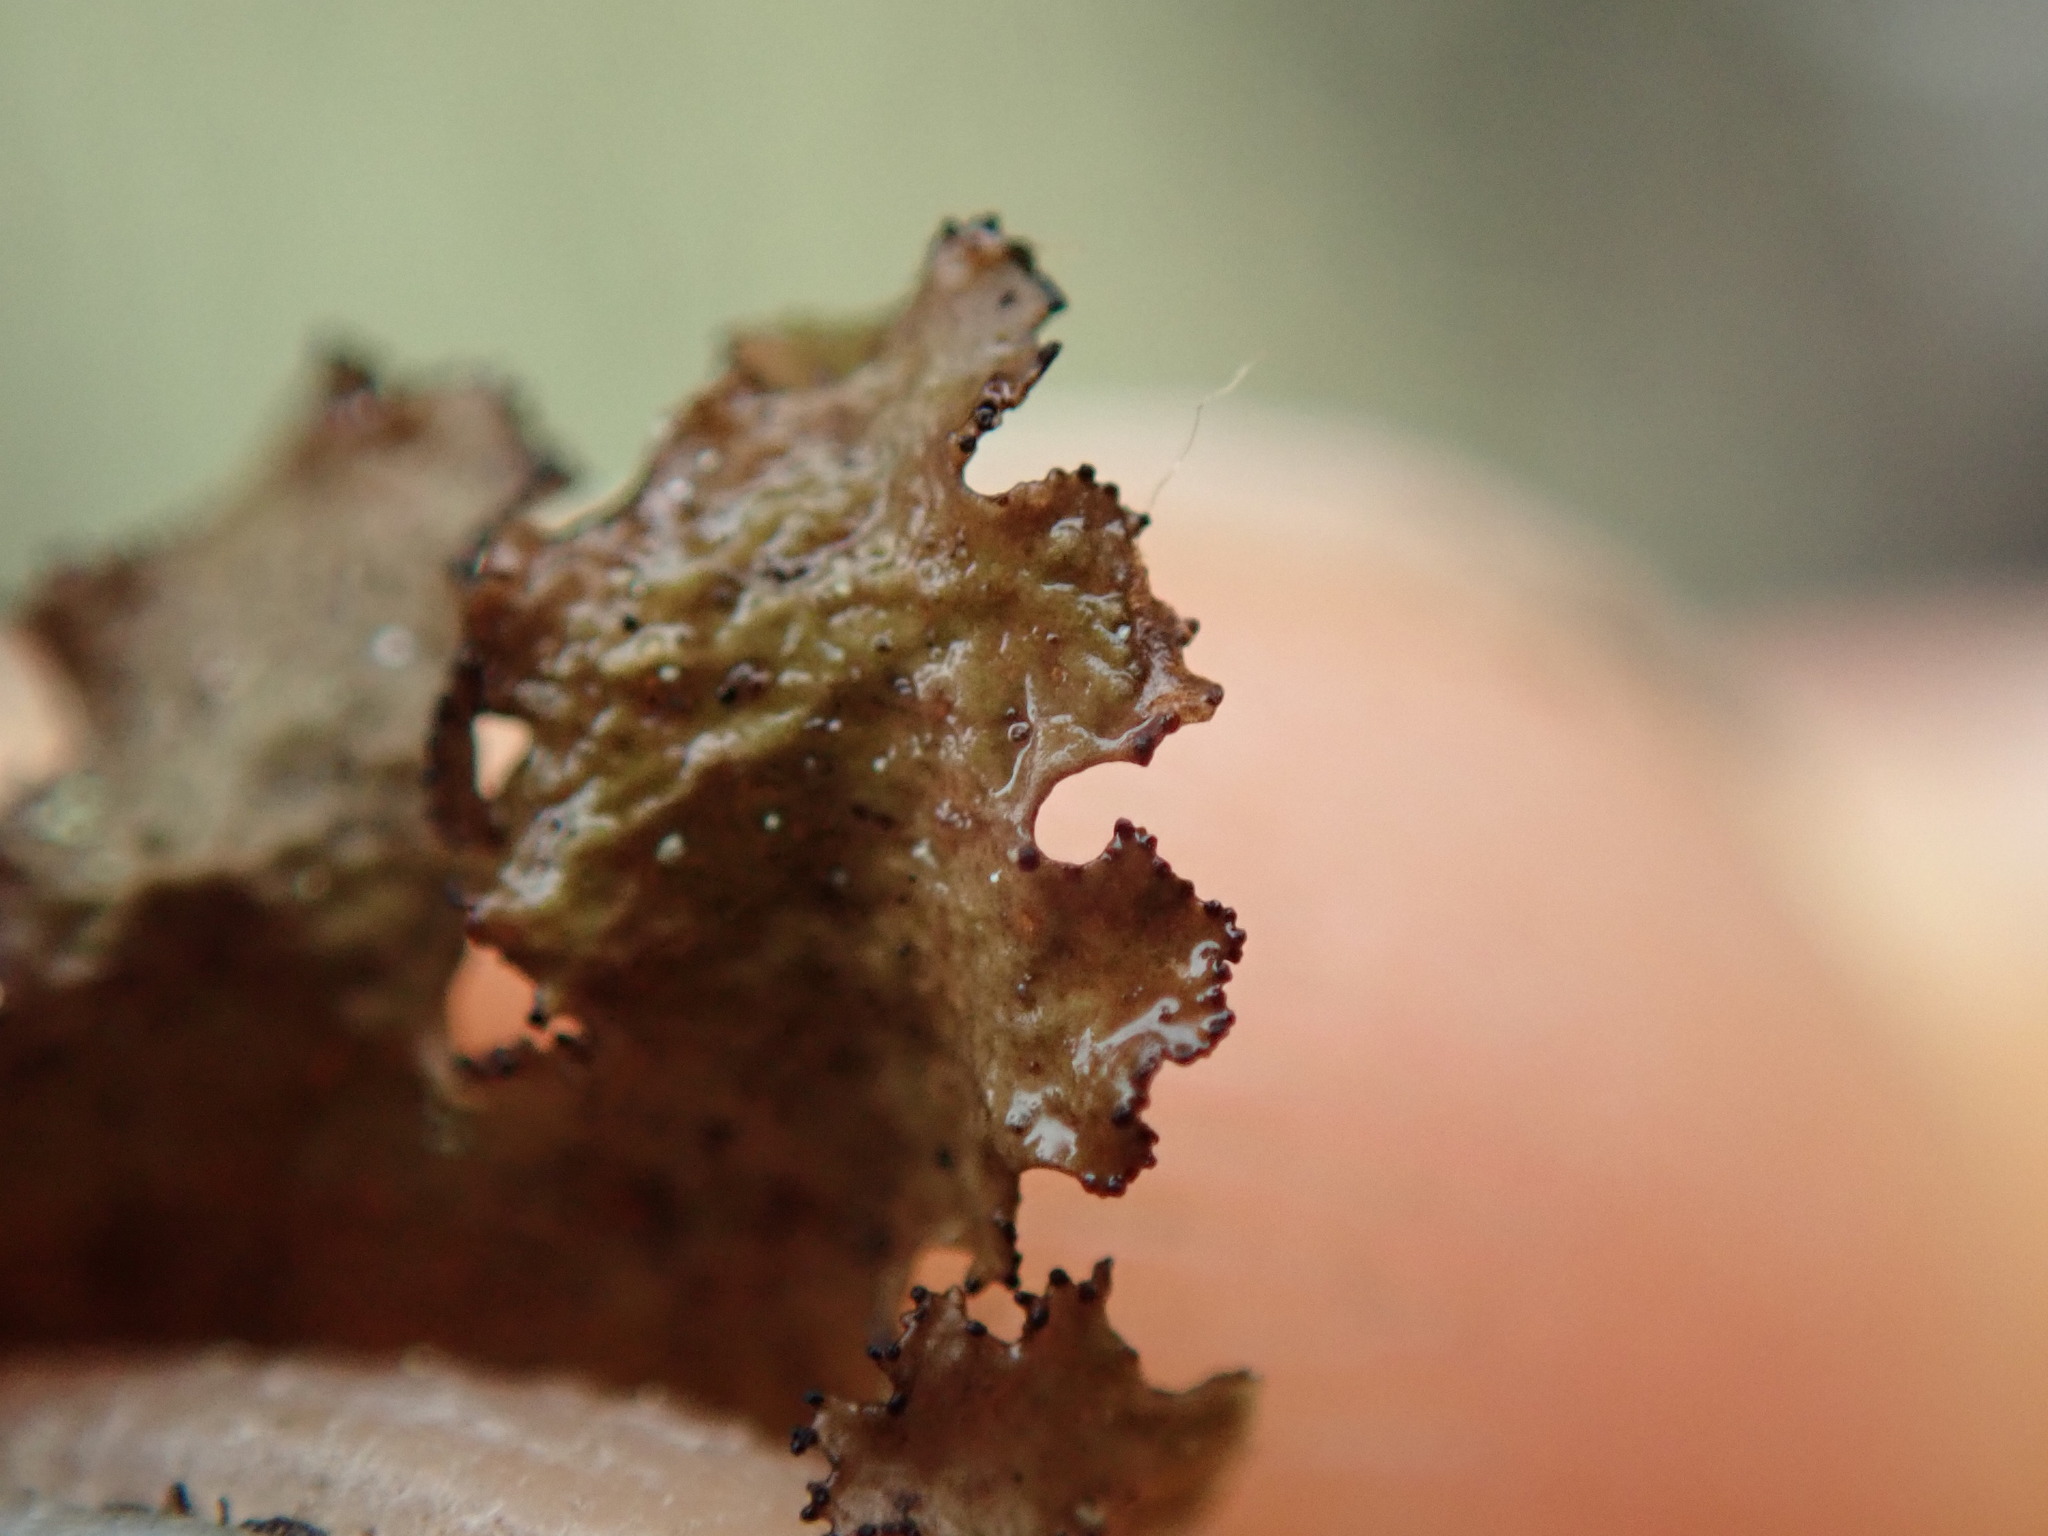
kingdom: Fungi
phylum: Ascomycota
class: Lecanoromycetes
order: Lecanorales
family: Parmeliaceae
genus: Nephromopsis
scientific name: Nephromopsis orbata
